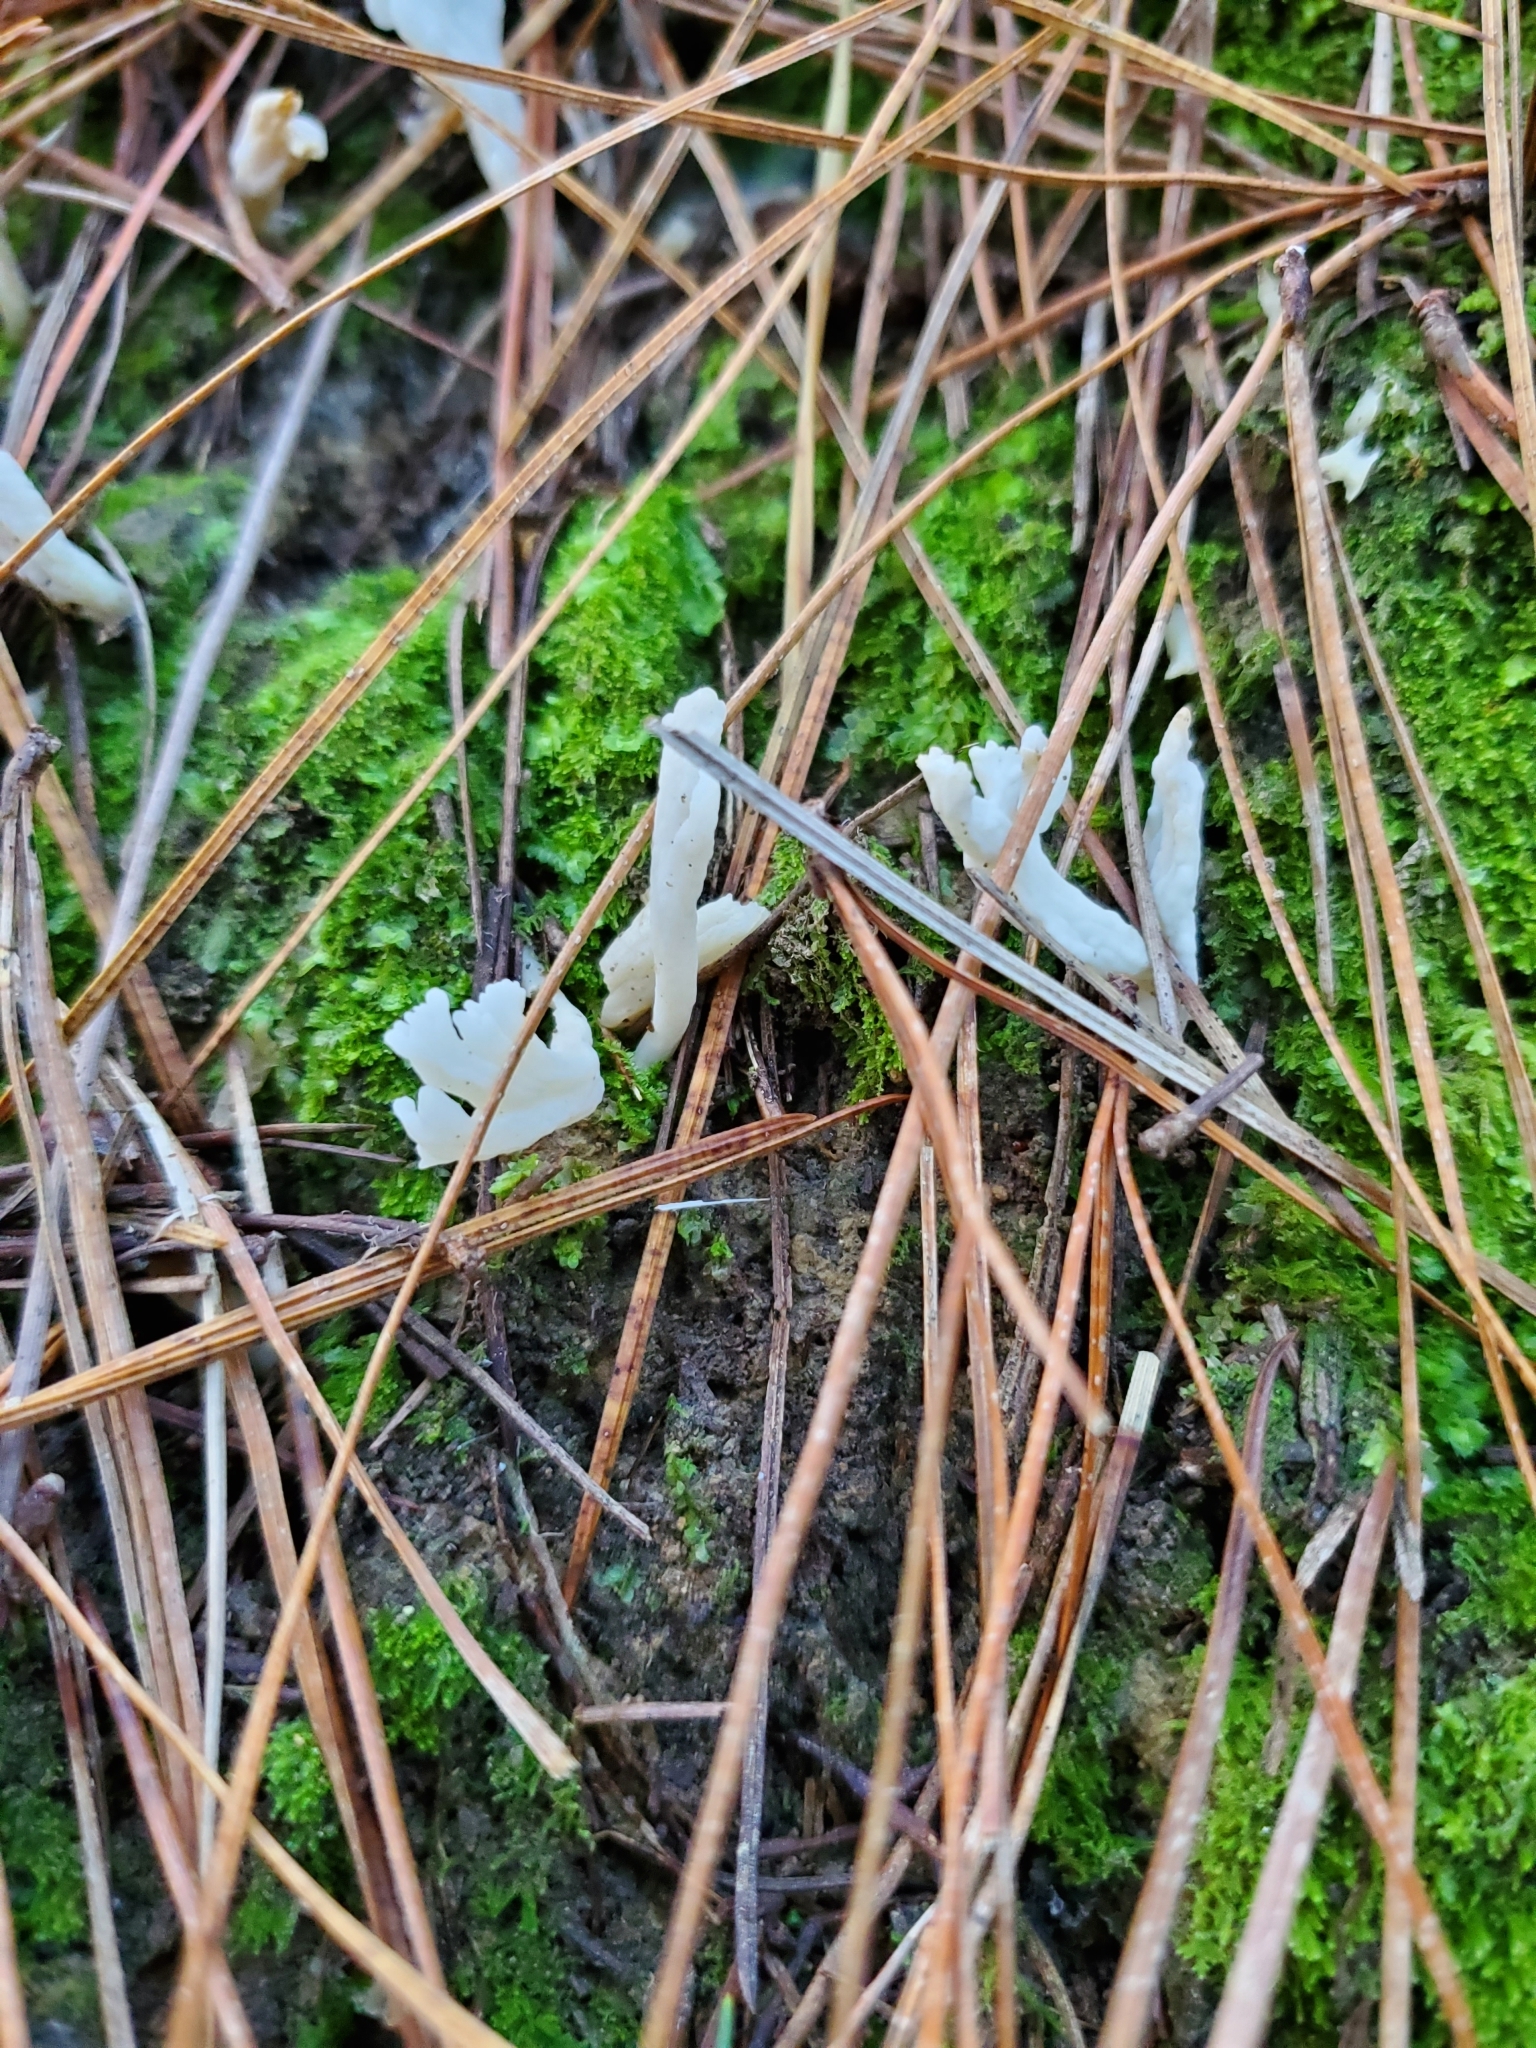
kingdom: Fungi
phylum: Basidiomycota
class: Agaricomycetes
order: Cantharellales
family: Hydnaceae
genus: Clavulina
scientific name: Clavulina rugosa
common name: Wrinkled club
